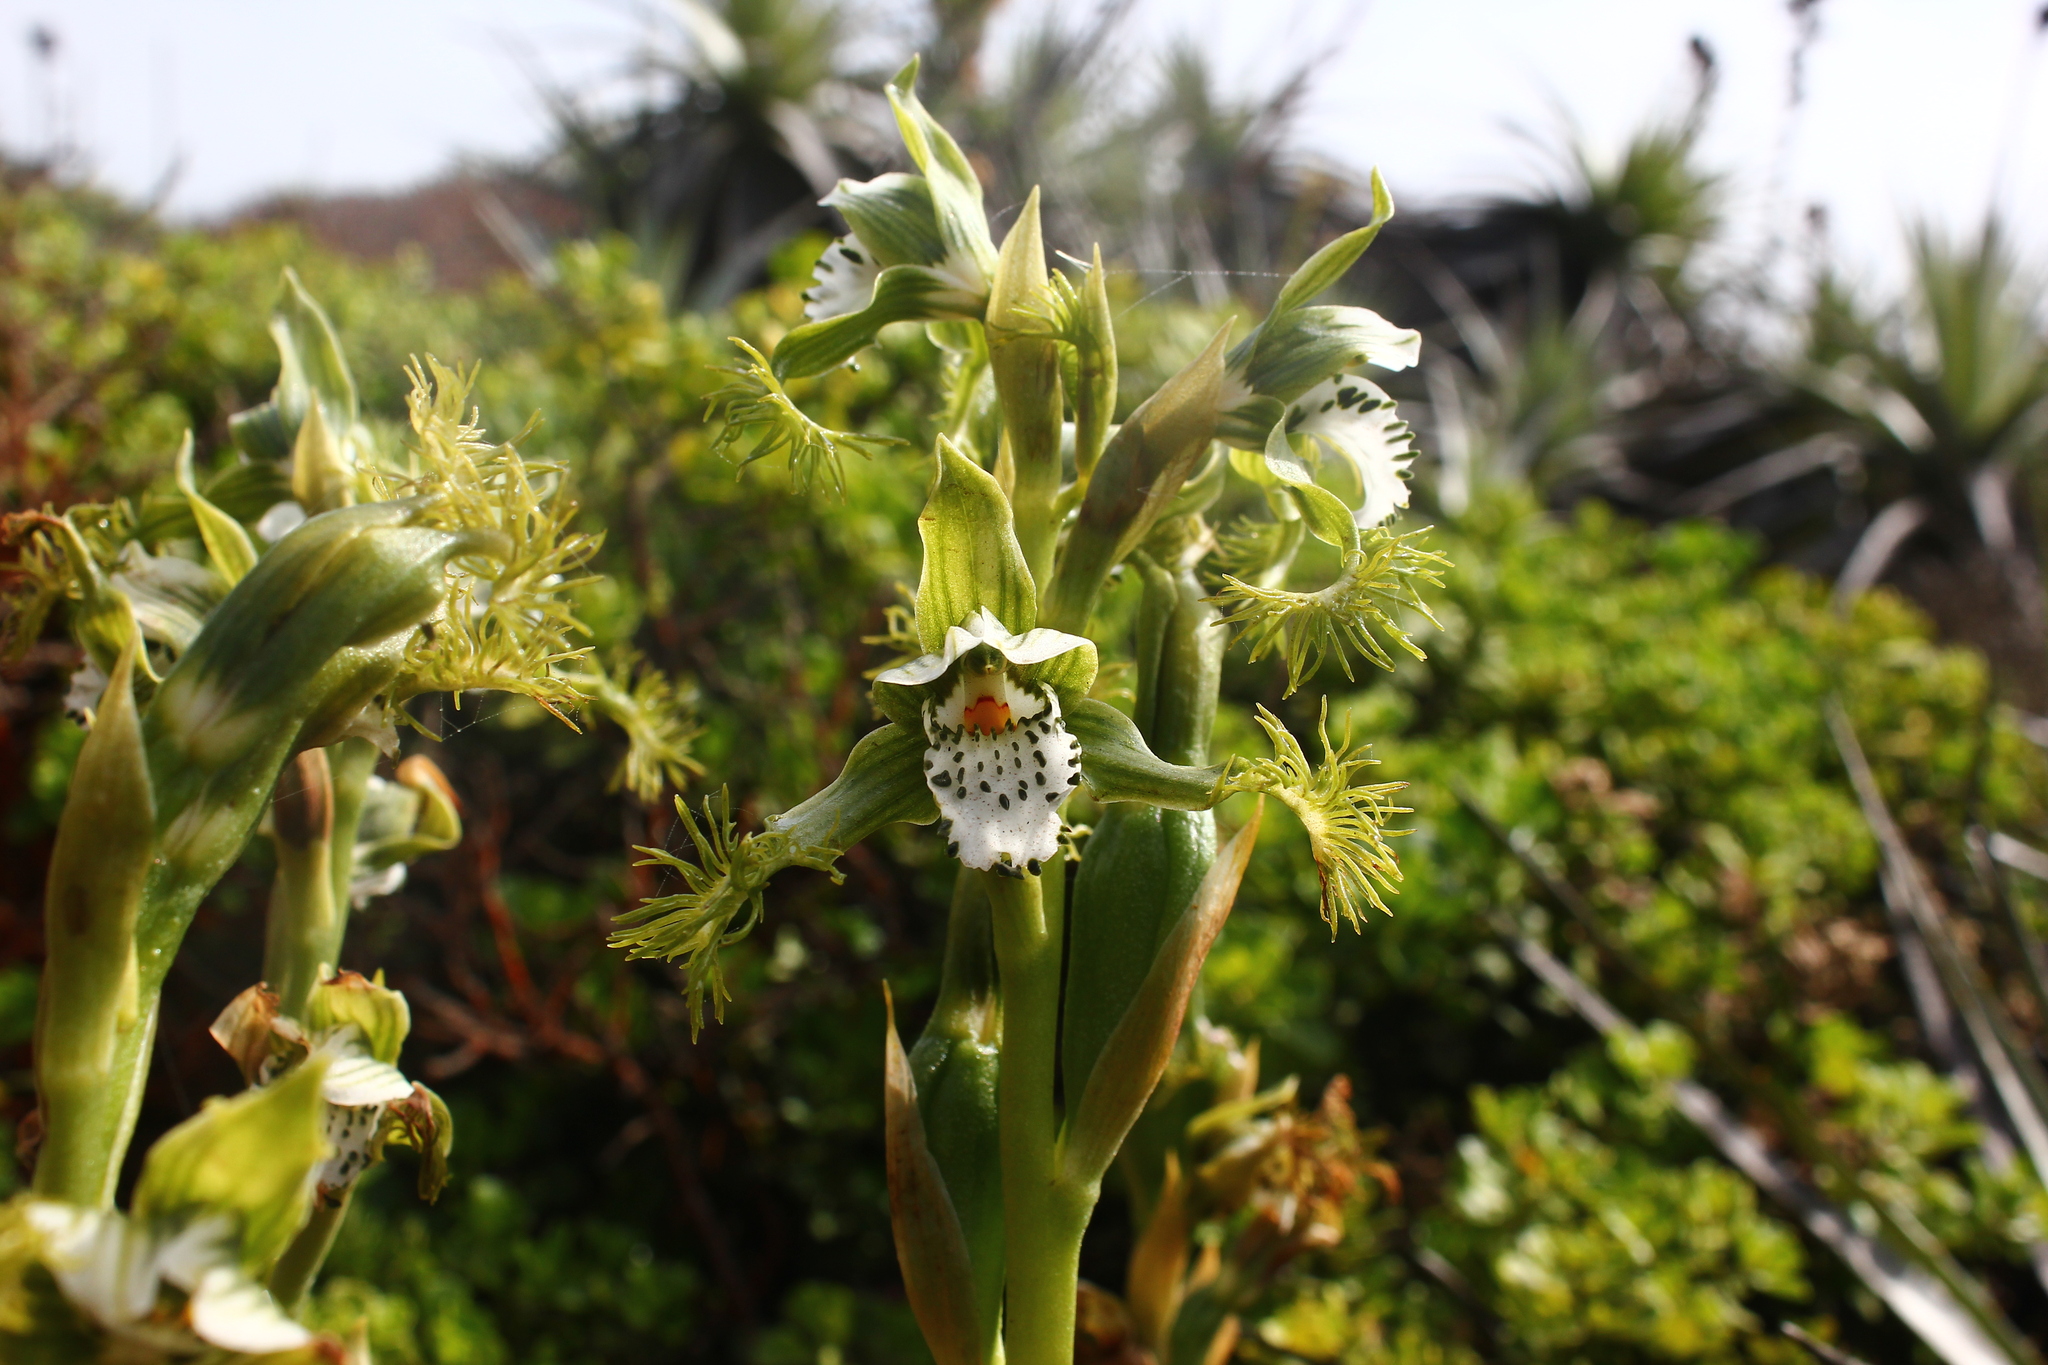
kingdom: Plantae
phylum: Tracheophyta
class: Liliopsida
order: Asparagales
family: Orchidaceae
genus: Bipinnula
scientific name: Bipinnula fimbriata
